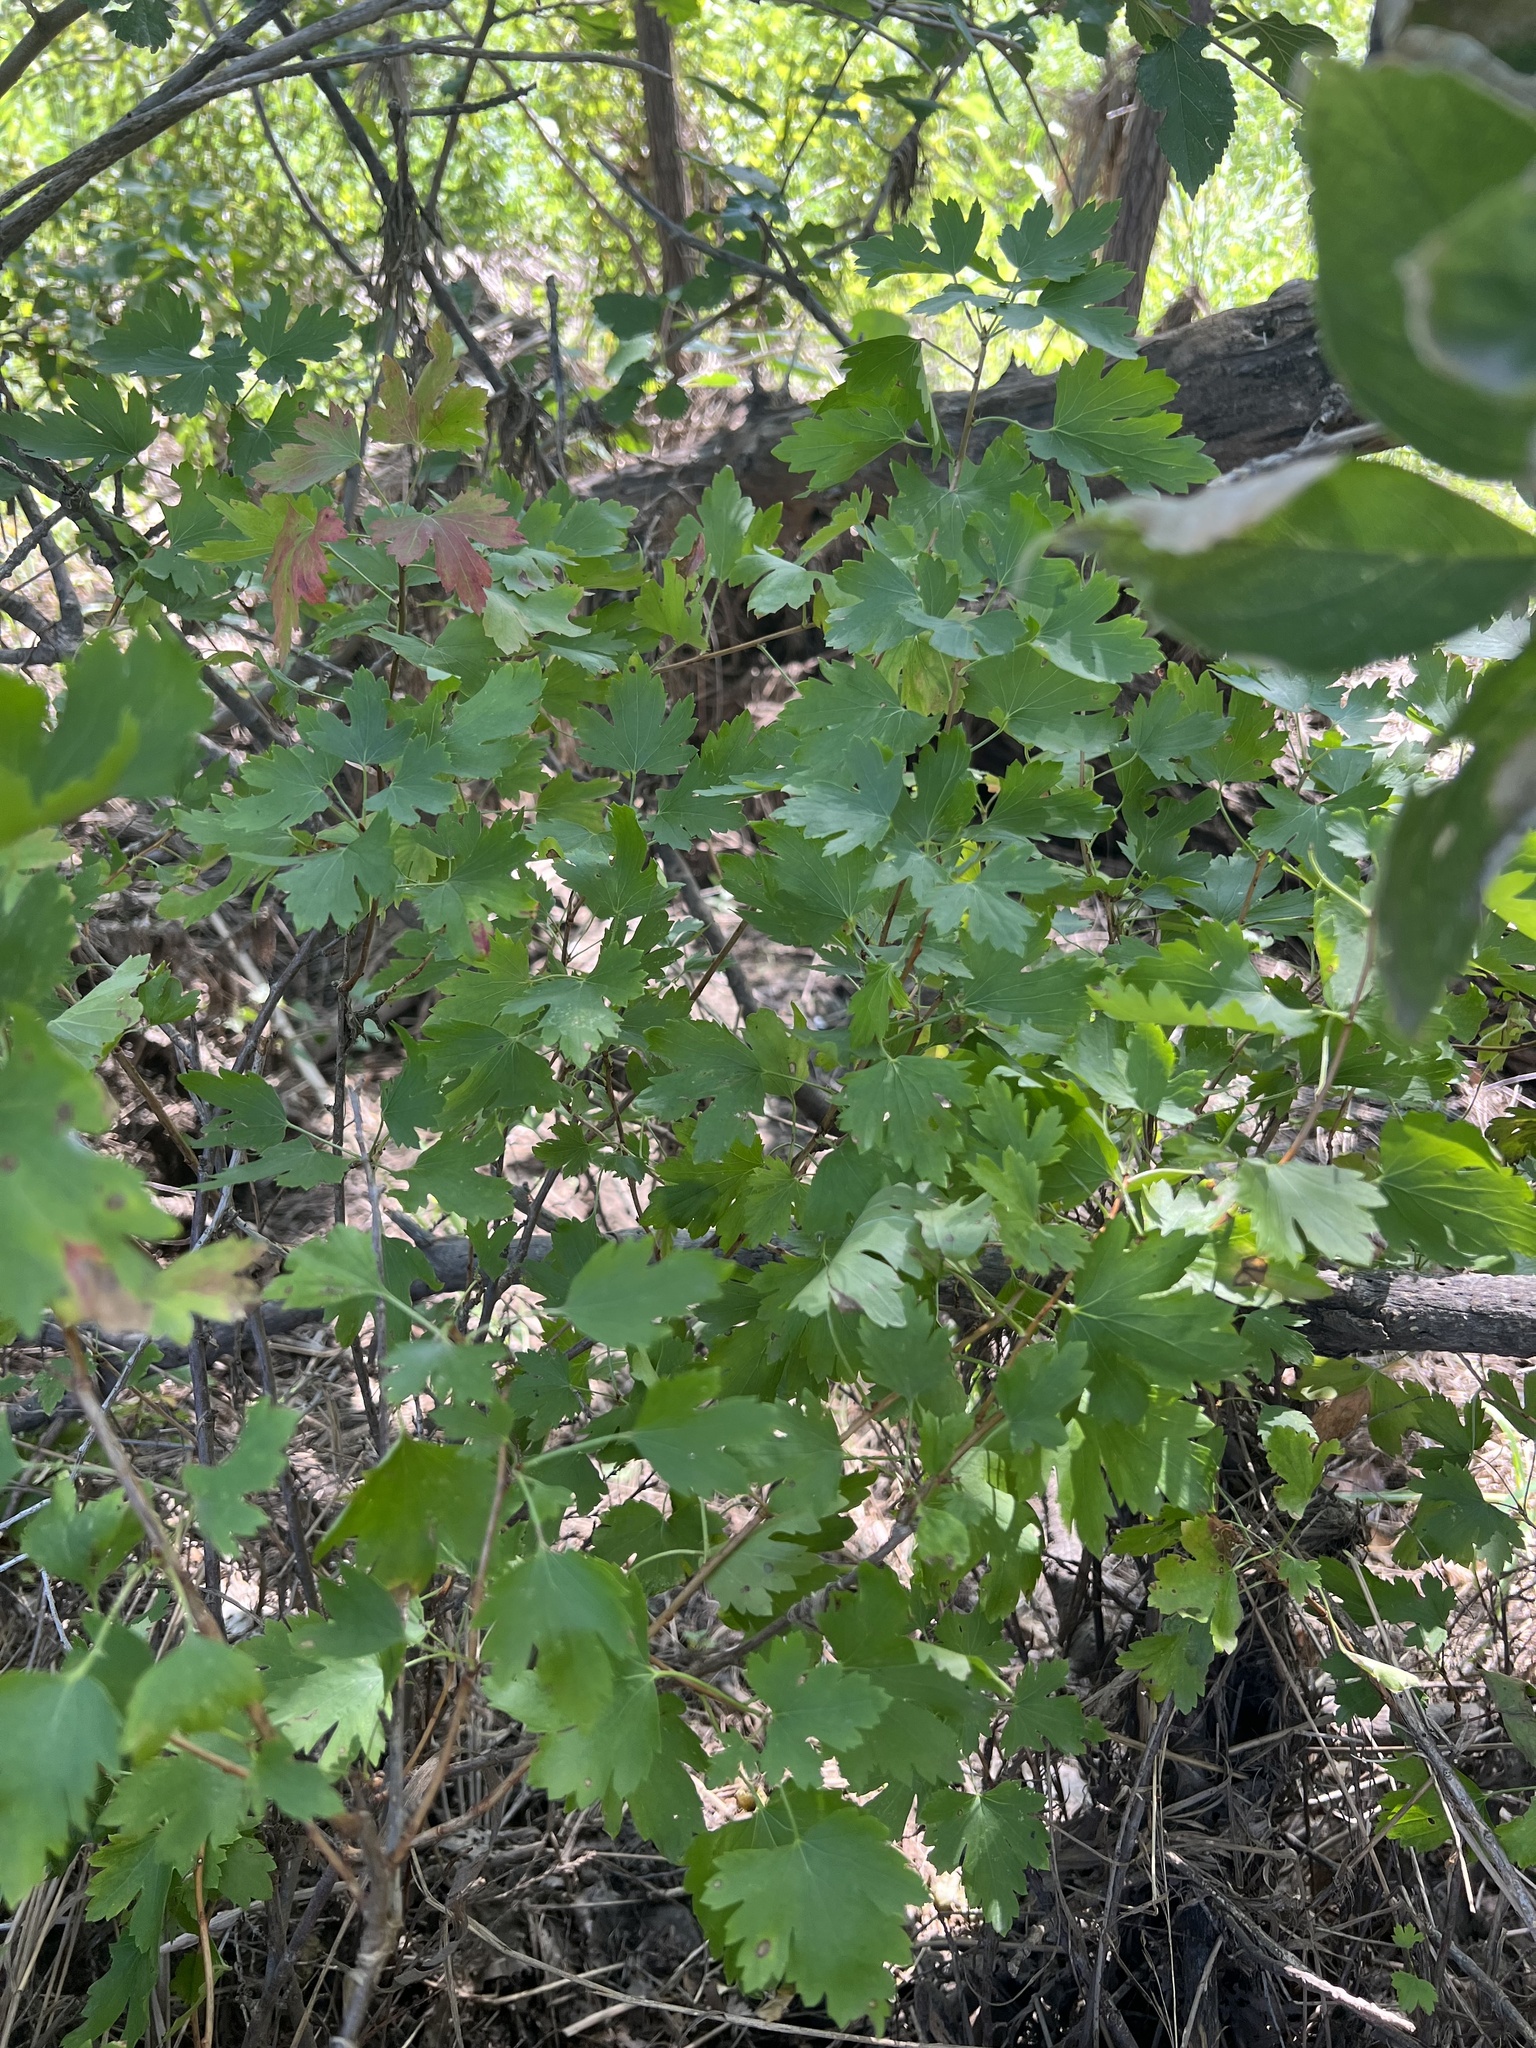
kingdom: Plantae
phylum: Tracheophyta
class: Magnoliopsida
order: Saxifragales
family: Grossulariaceae
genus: Ribes
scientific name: Ribes aureum
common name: Golden currant
